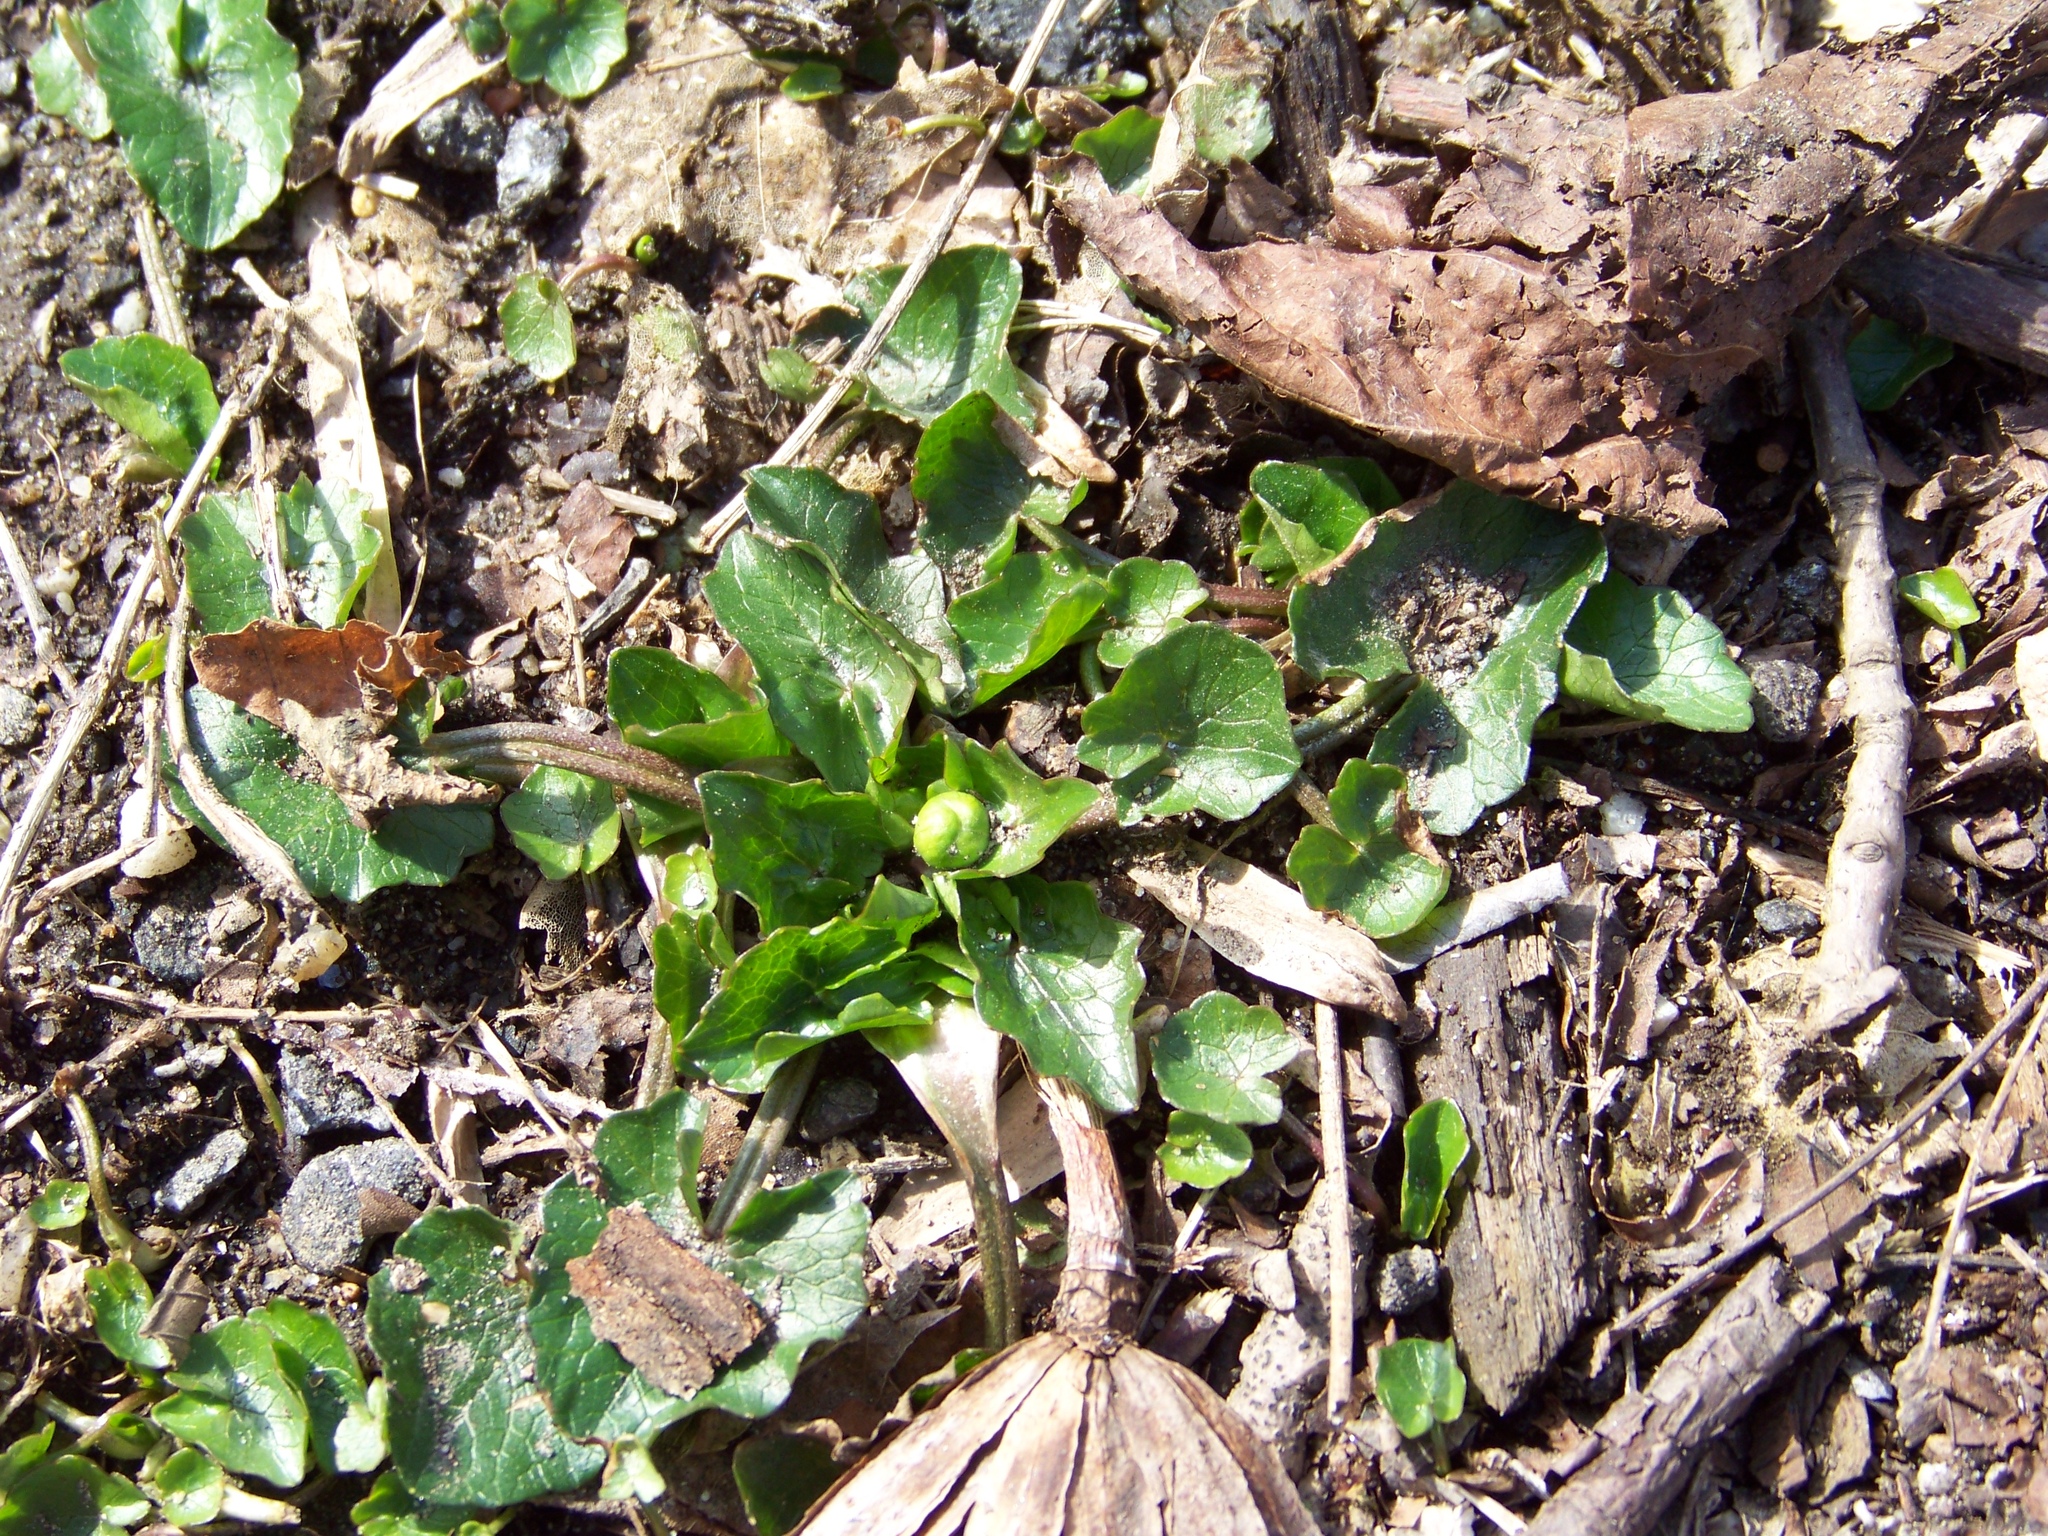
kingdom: Plantae
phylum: Tracheophyta
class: Magnoliopsida
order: Ranunculales
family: Ranunculaceae
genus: Ficaria
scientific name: Ficaria verna
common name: Lesser celandine
